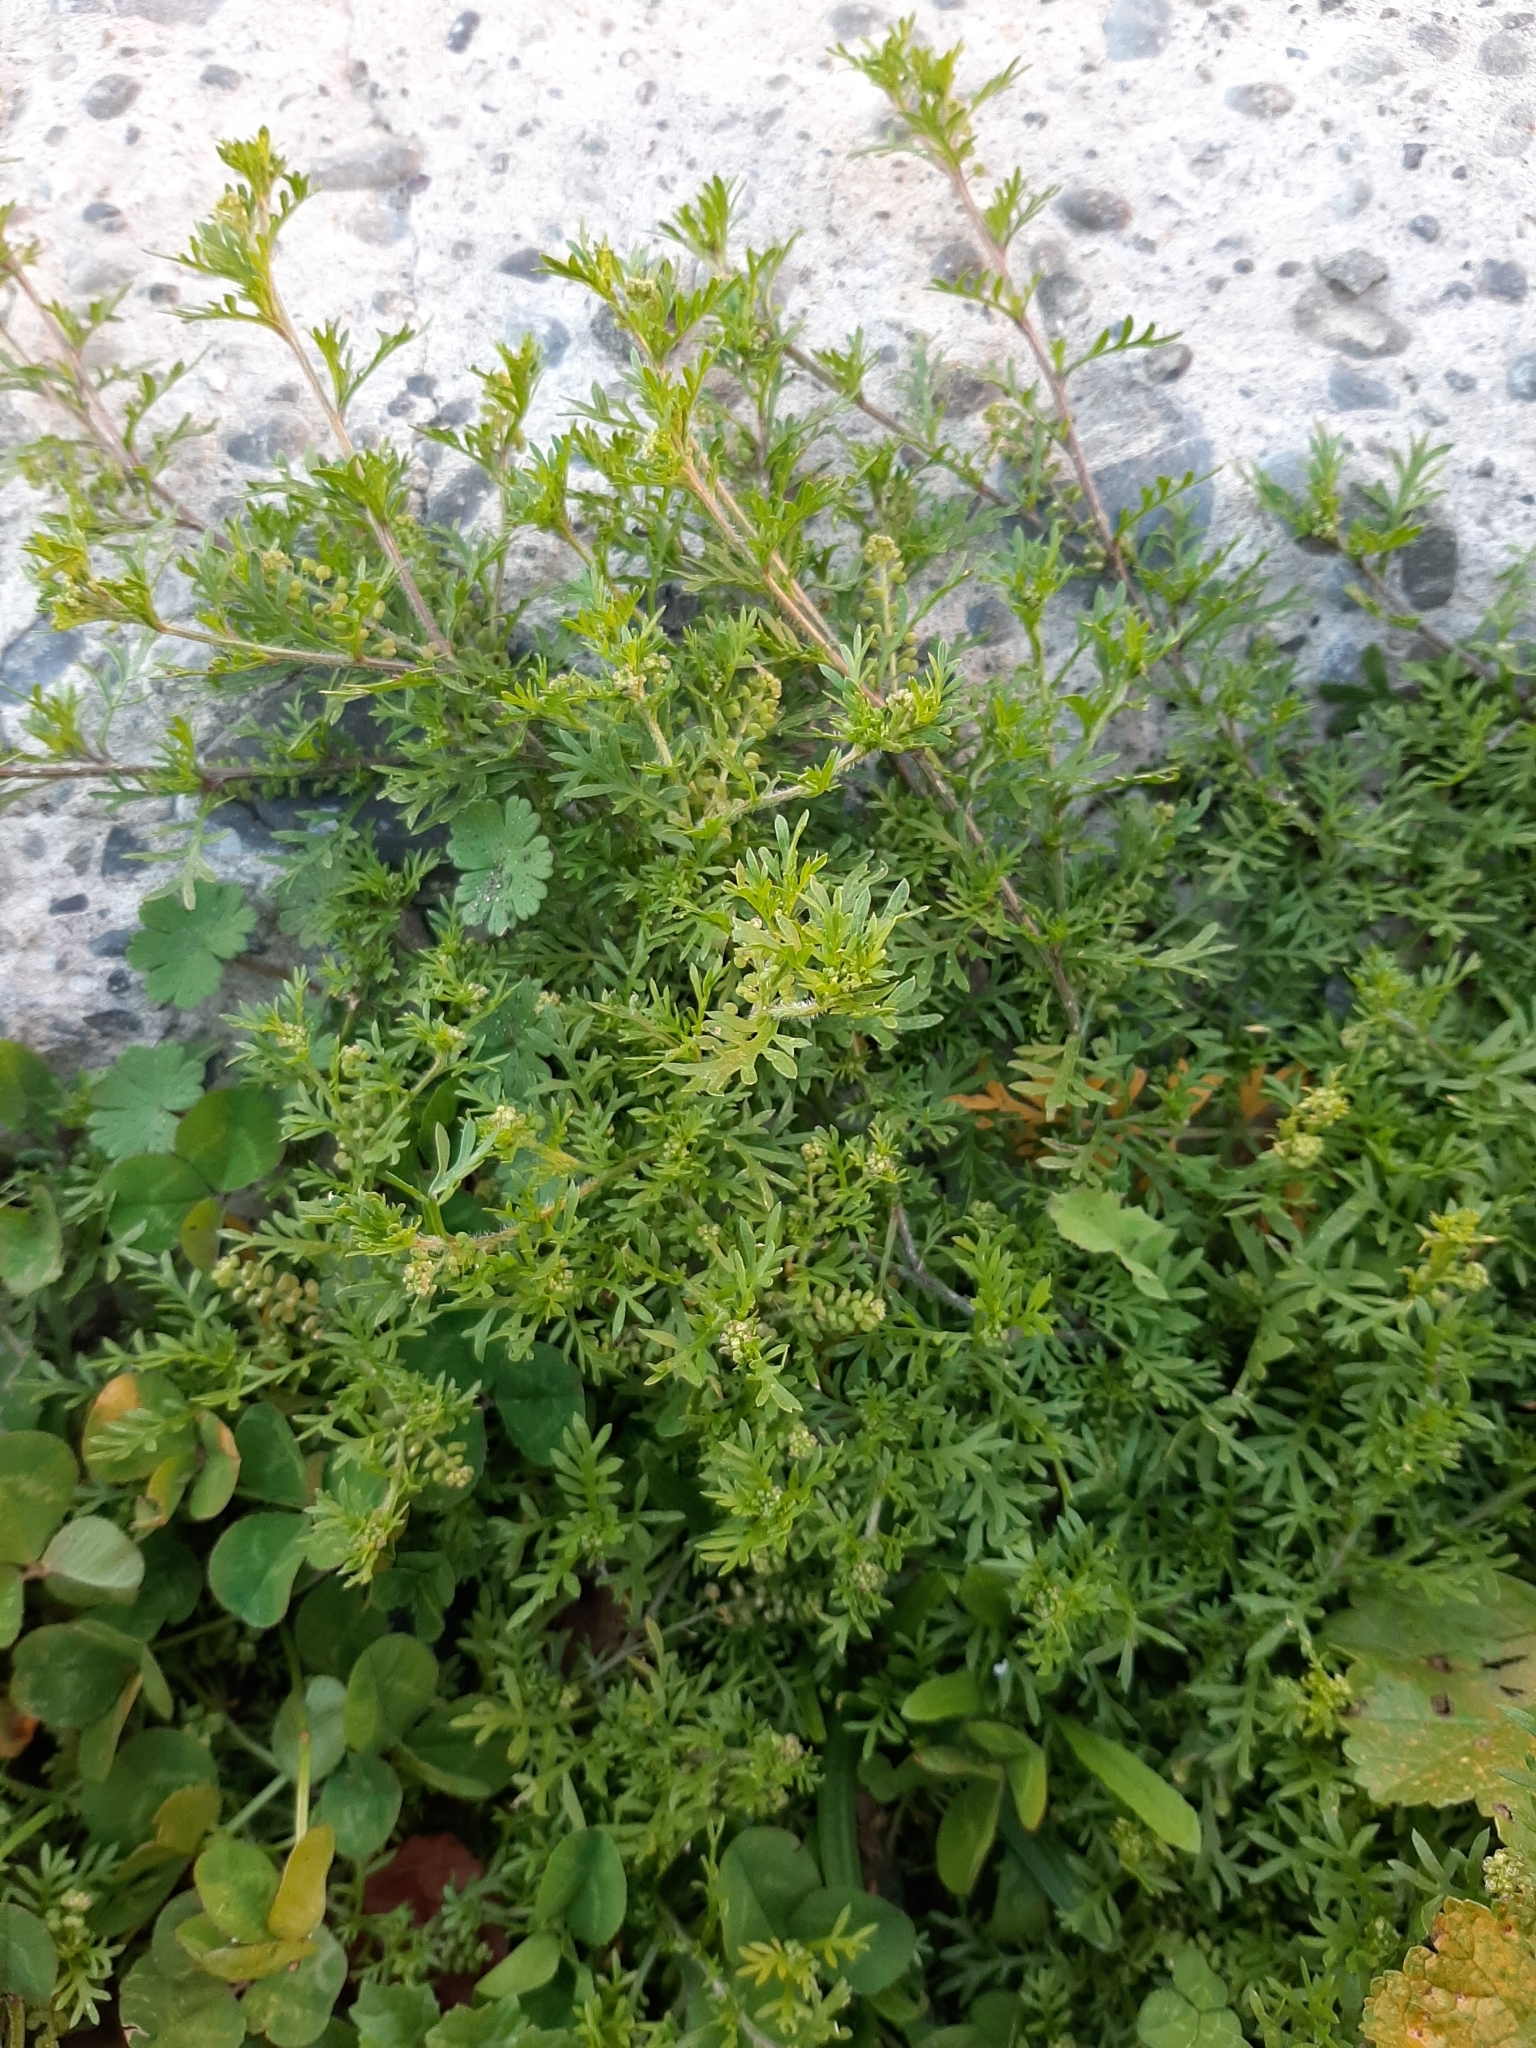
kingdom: Plantae
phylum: Tracheophyta
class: Magnoliopsida
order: Brassicales
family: Brassicaceae
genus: Lepidium
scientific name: Lepidium didymum
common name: Lesser swinecress
